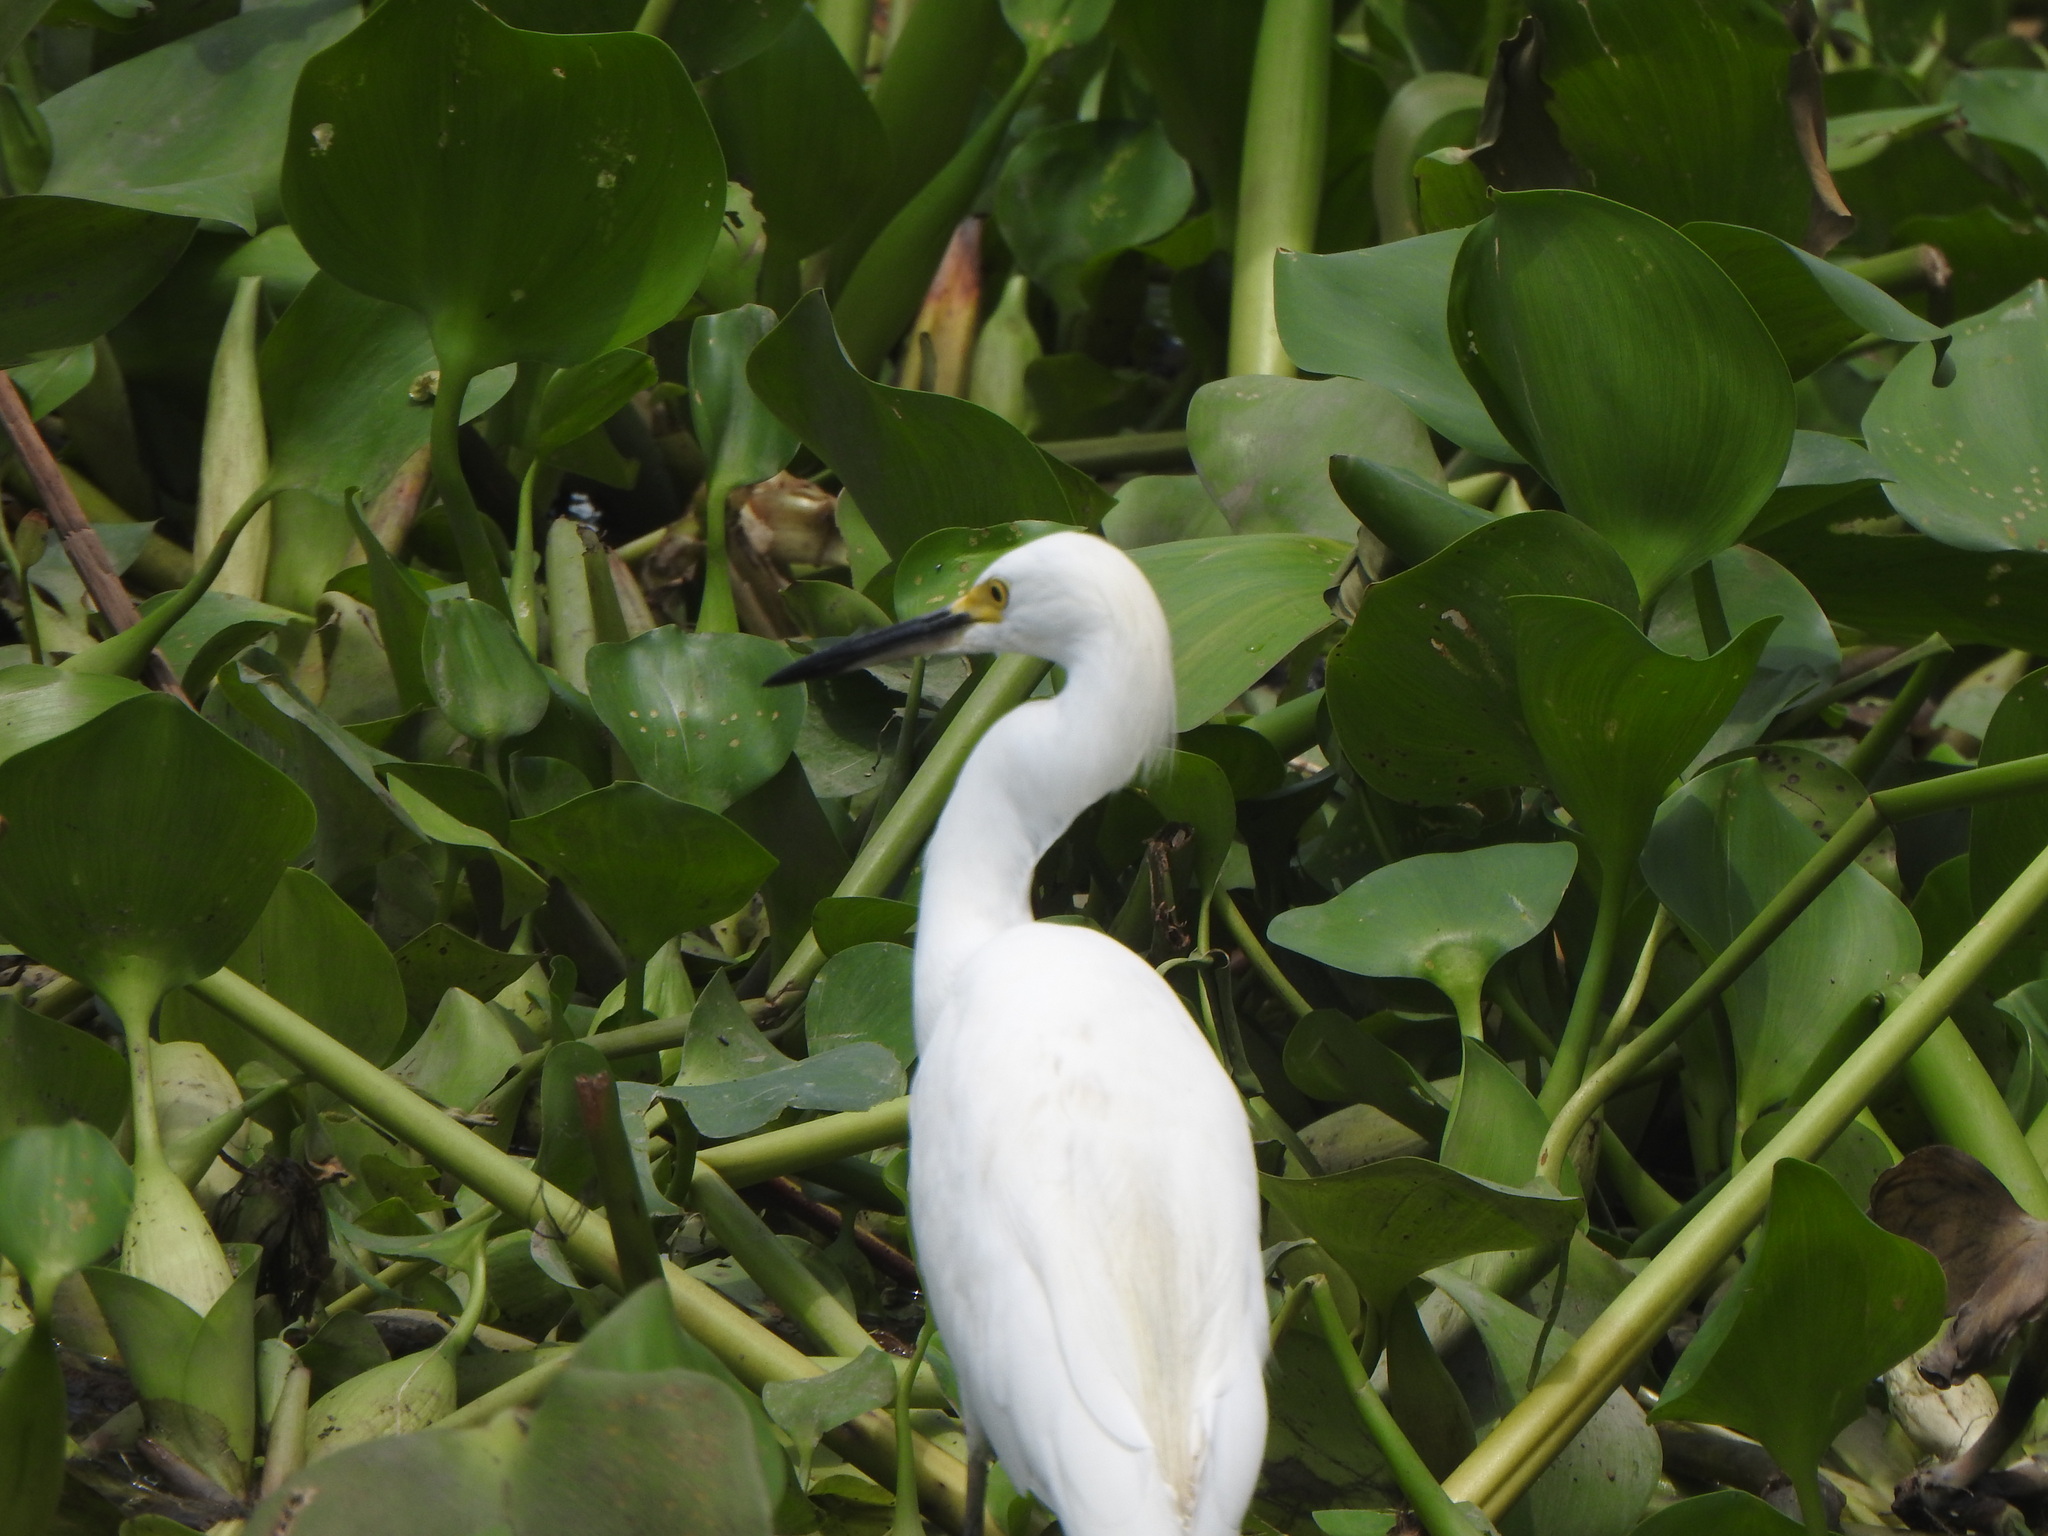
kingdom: Animalia
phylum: Chordata
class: Aves
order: Pelecaniformes
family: Ardeidae
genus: Egretta
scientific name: Egretta thula
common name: Snowy egret
